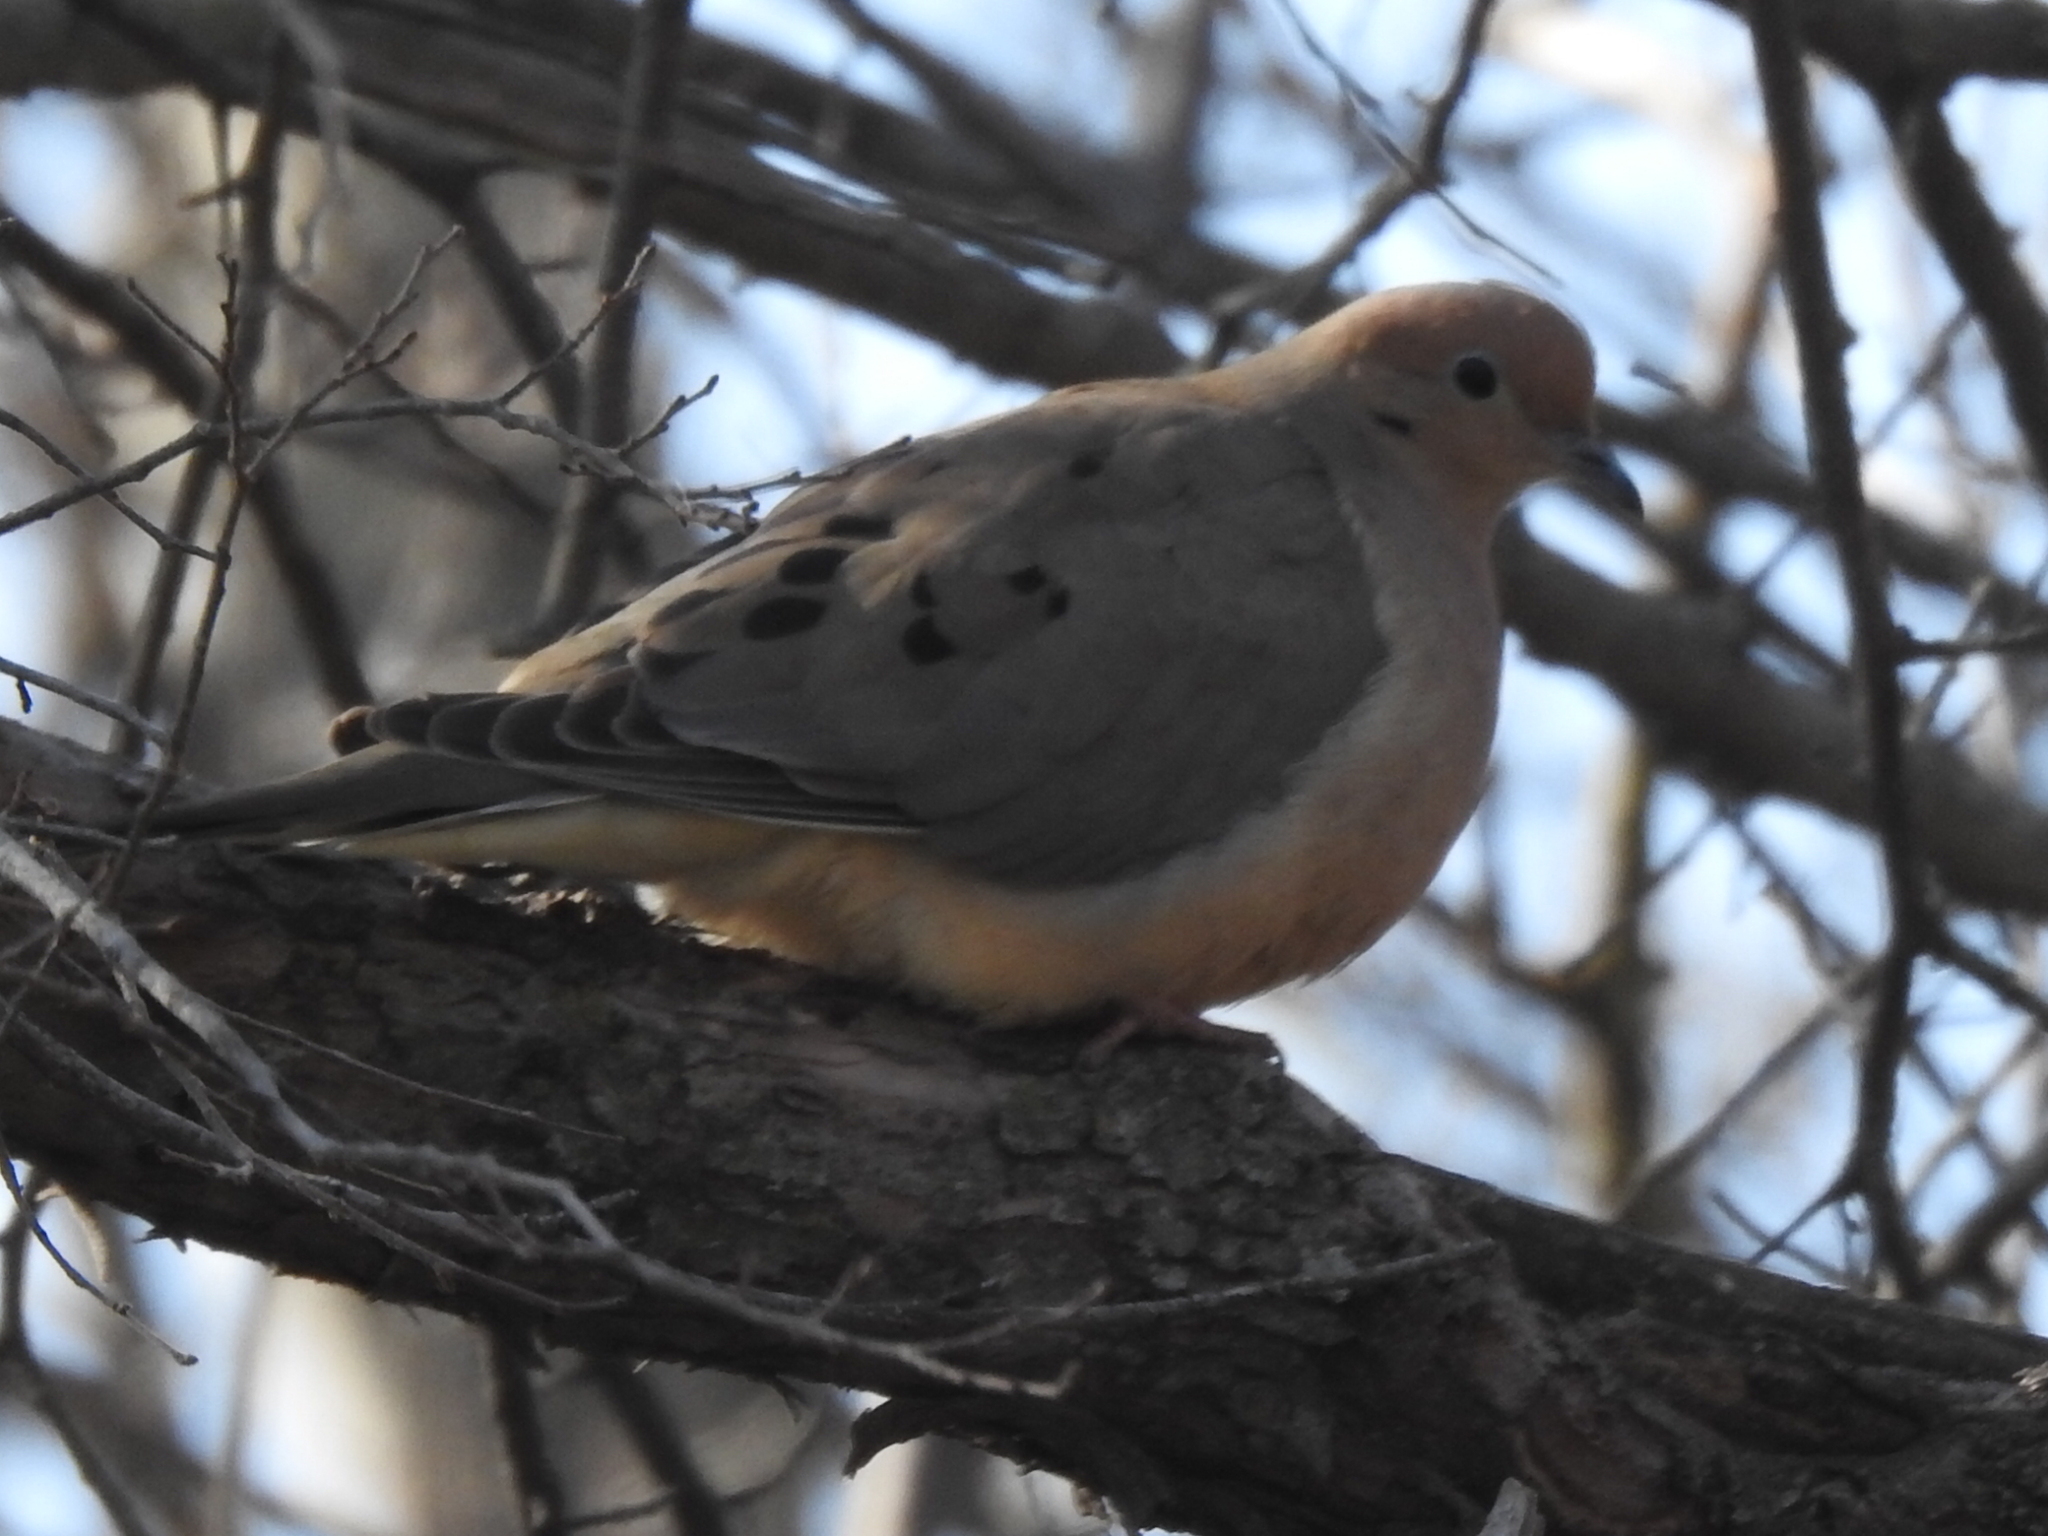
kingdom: Animalia
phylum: Chordata
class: Aves
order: Columbiformes
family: Columbidae
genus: Zenaida
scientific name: Zenaida macroura
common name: Mourning dove
